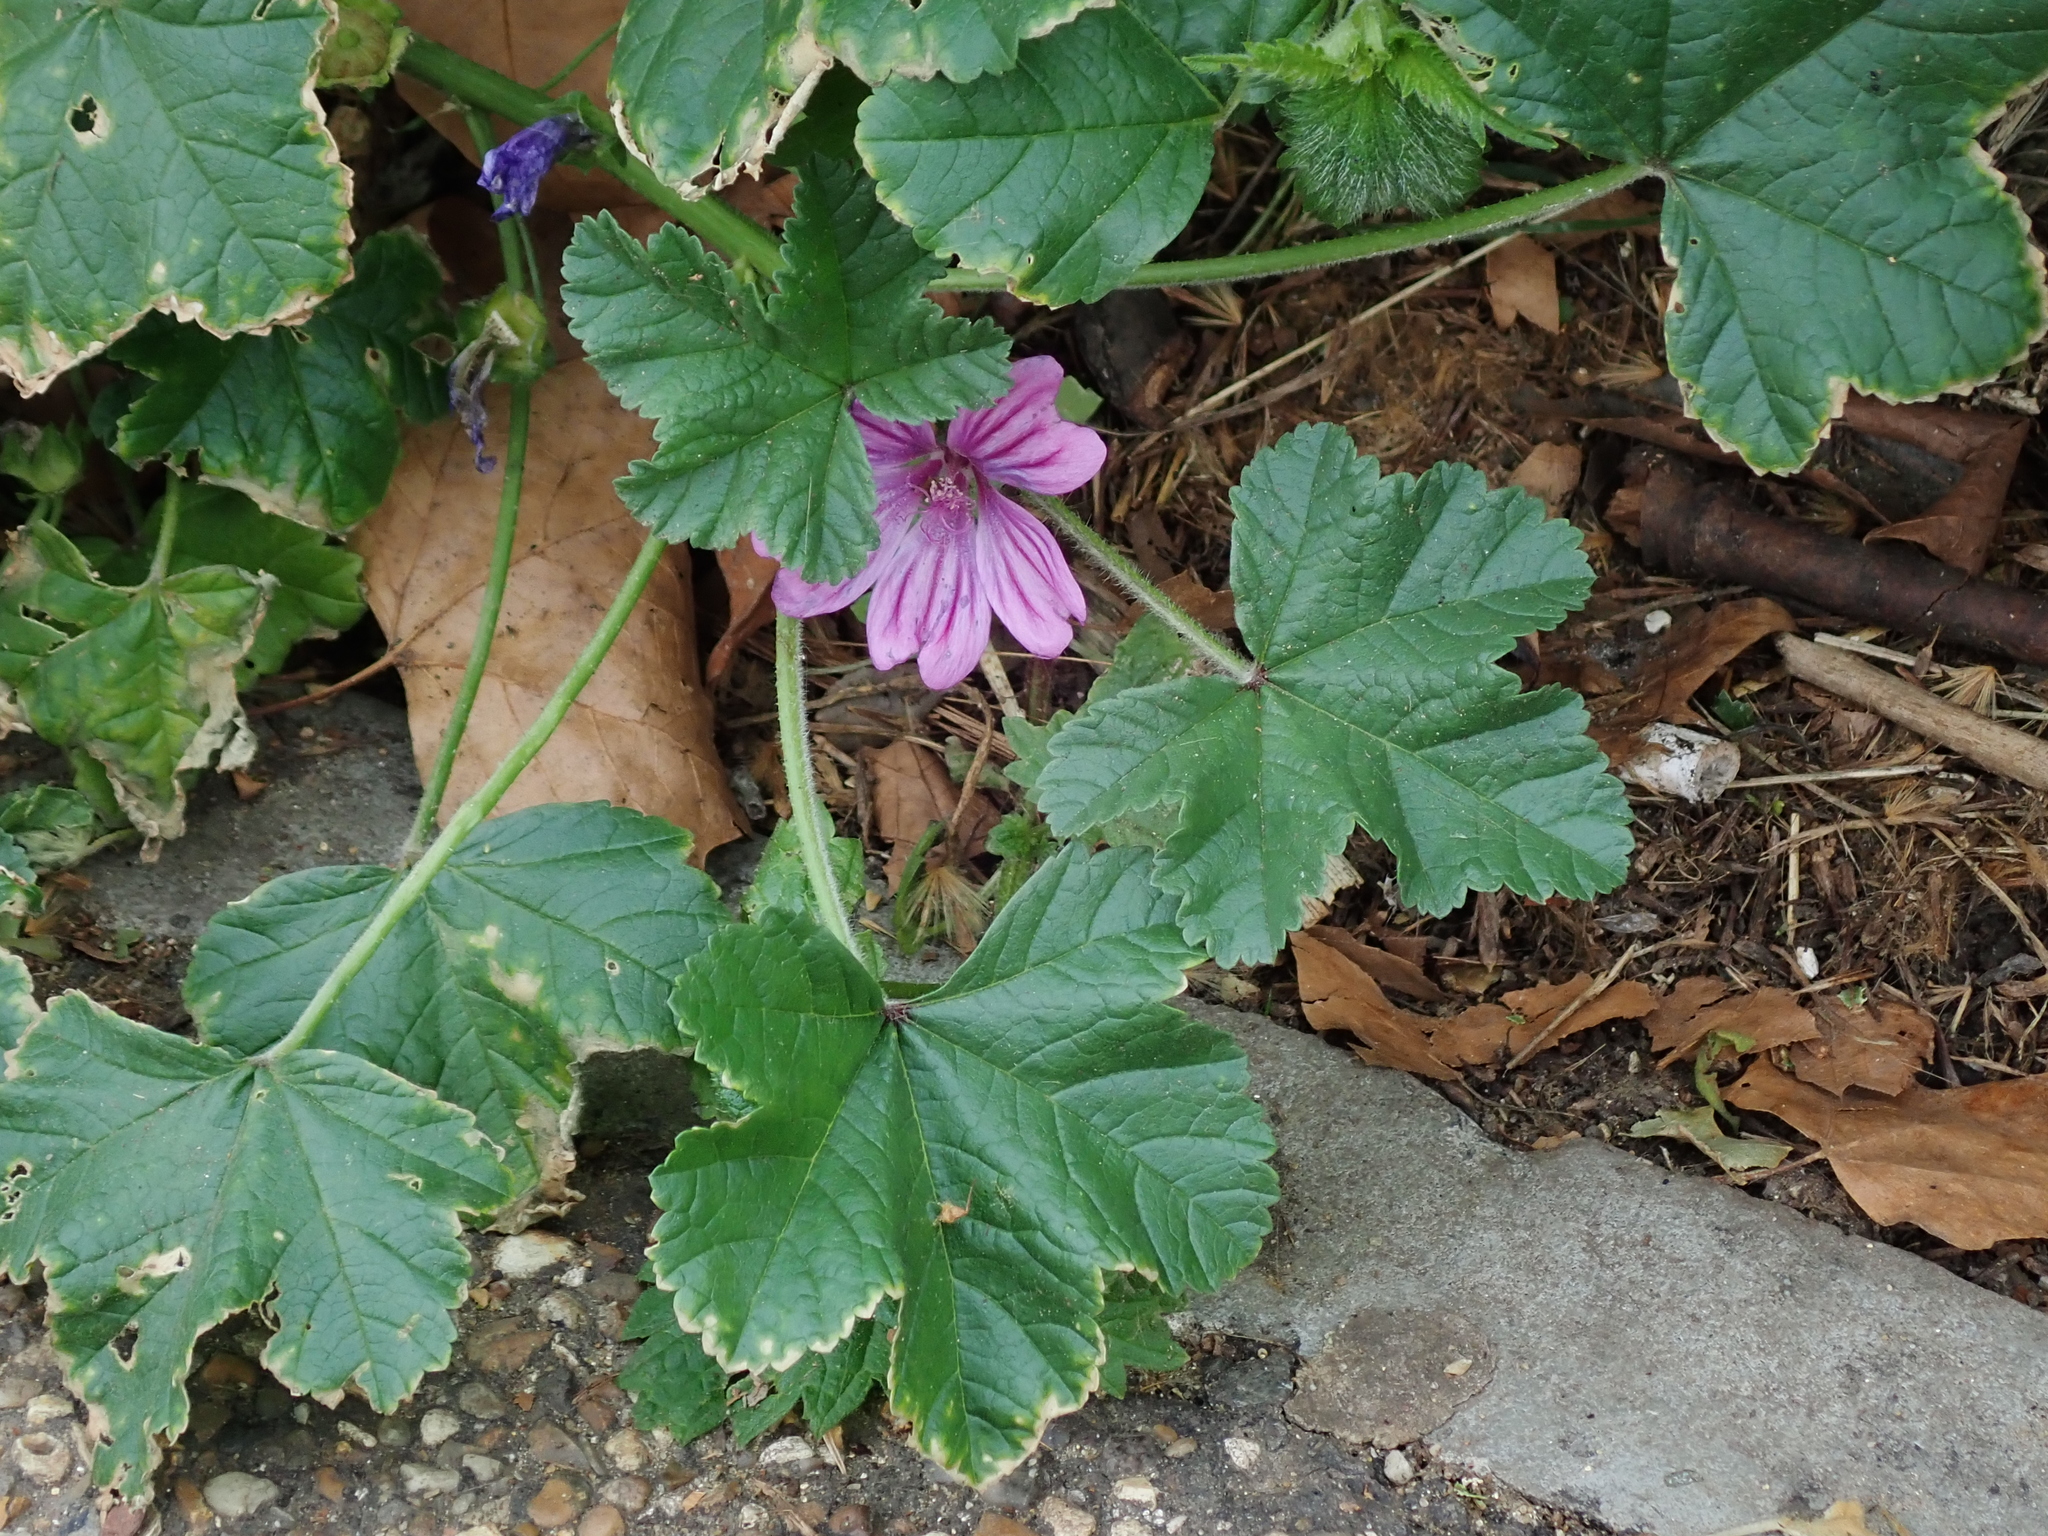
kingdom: Plantae
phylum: Tracheophyta
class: Magnoliopsida
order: Malvales
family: Malvaceae
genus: Malva
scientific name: Malva sylvestris
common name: Common mallow
